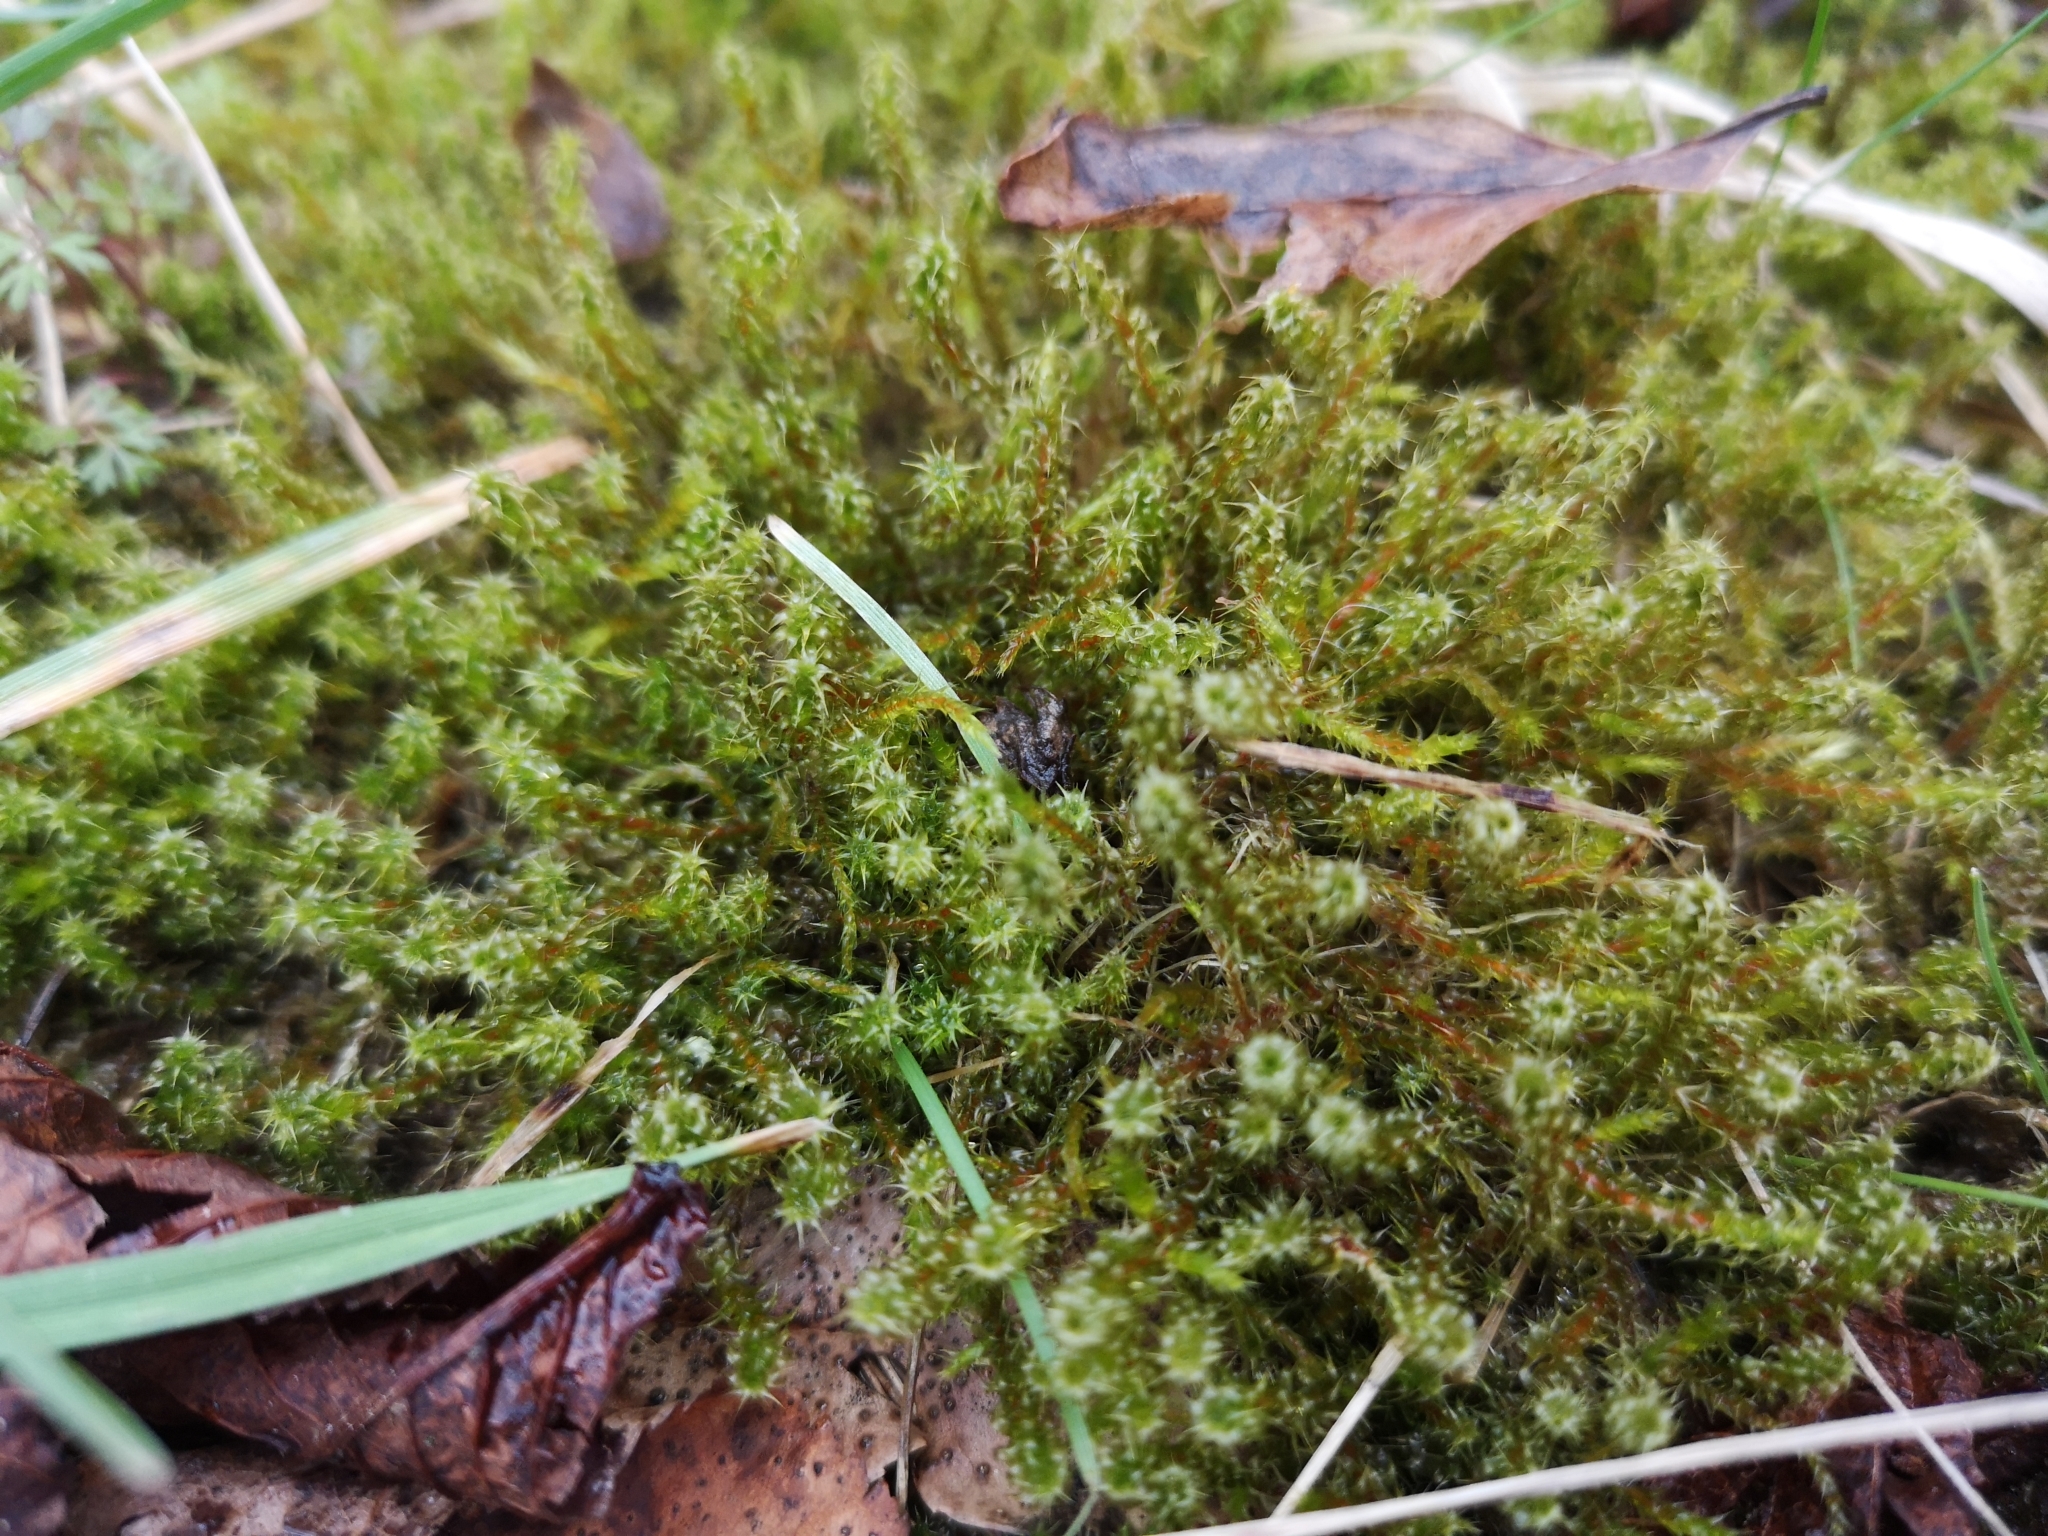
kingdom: Plantae
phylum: Bryophyta
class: Bryopsida
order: Hypnales
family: Hylocomiaceae
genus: Rhytidiadelphus
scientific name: Rhytidiadelphus squarrosus
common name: Springy turf-moss
